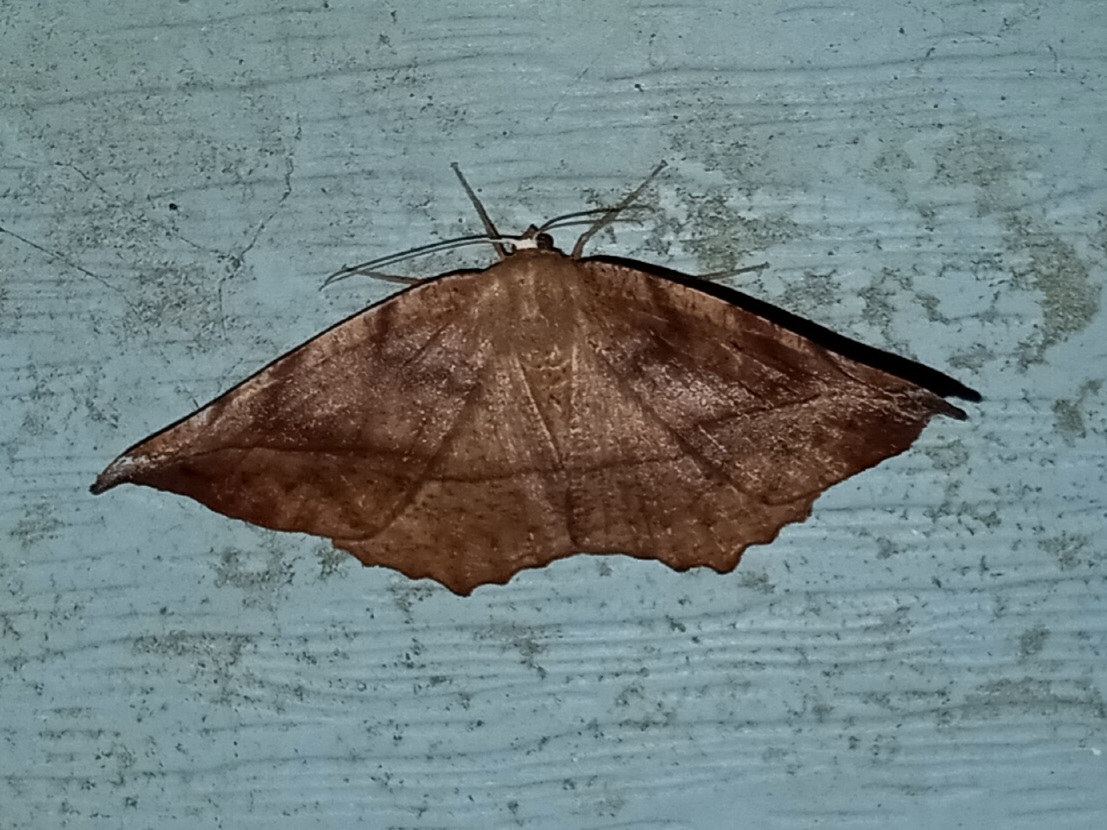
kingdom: Animalia
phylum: Arthropoda
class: Insecta
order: Lepidoptera
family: Geometridae
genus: Eutrapela
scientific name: Eutrapela clemataria
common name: Curved-toothed geometer
